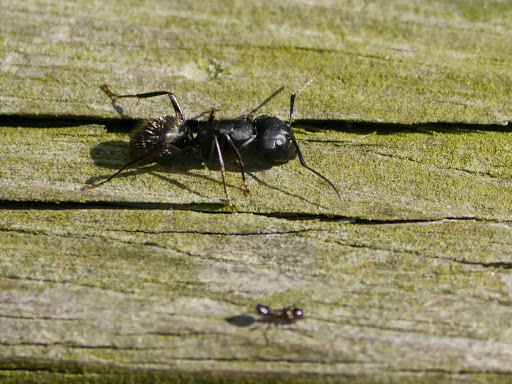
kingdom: Animalia
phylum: Arthropoda
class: Insecta
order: Hymenoptera
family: Formicidae
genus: Camponotus
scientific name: Camponotus pennsylvanicus
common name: Black carpenter ant
